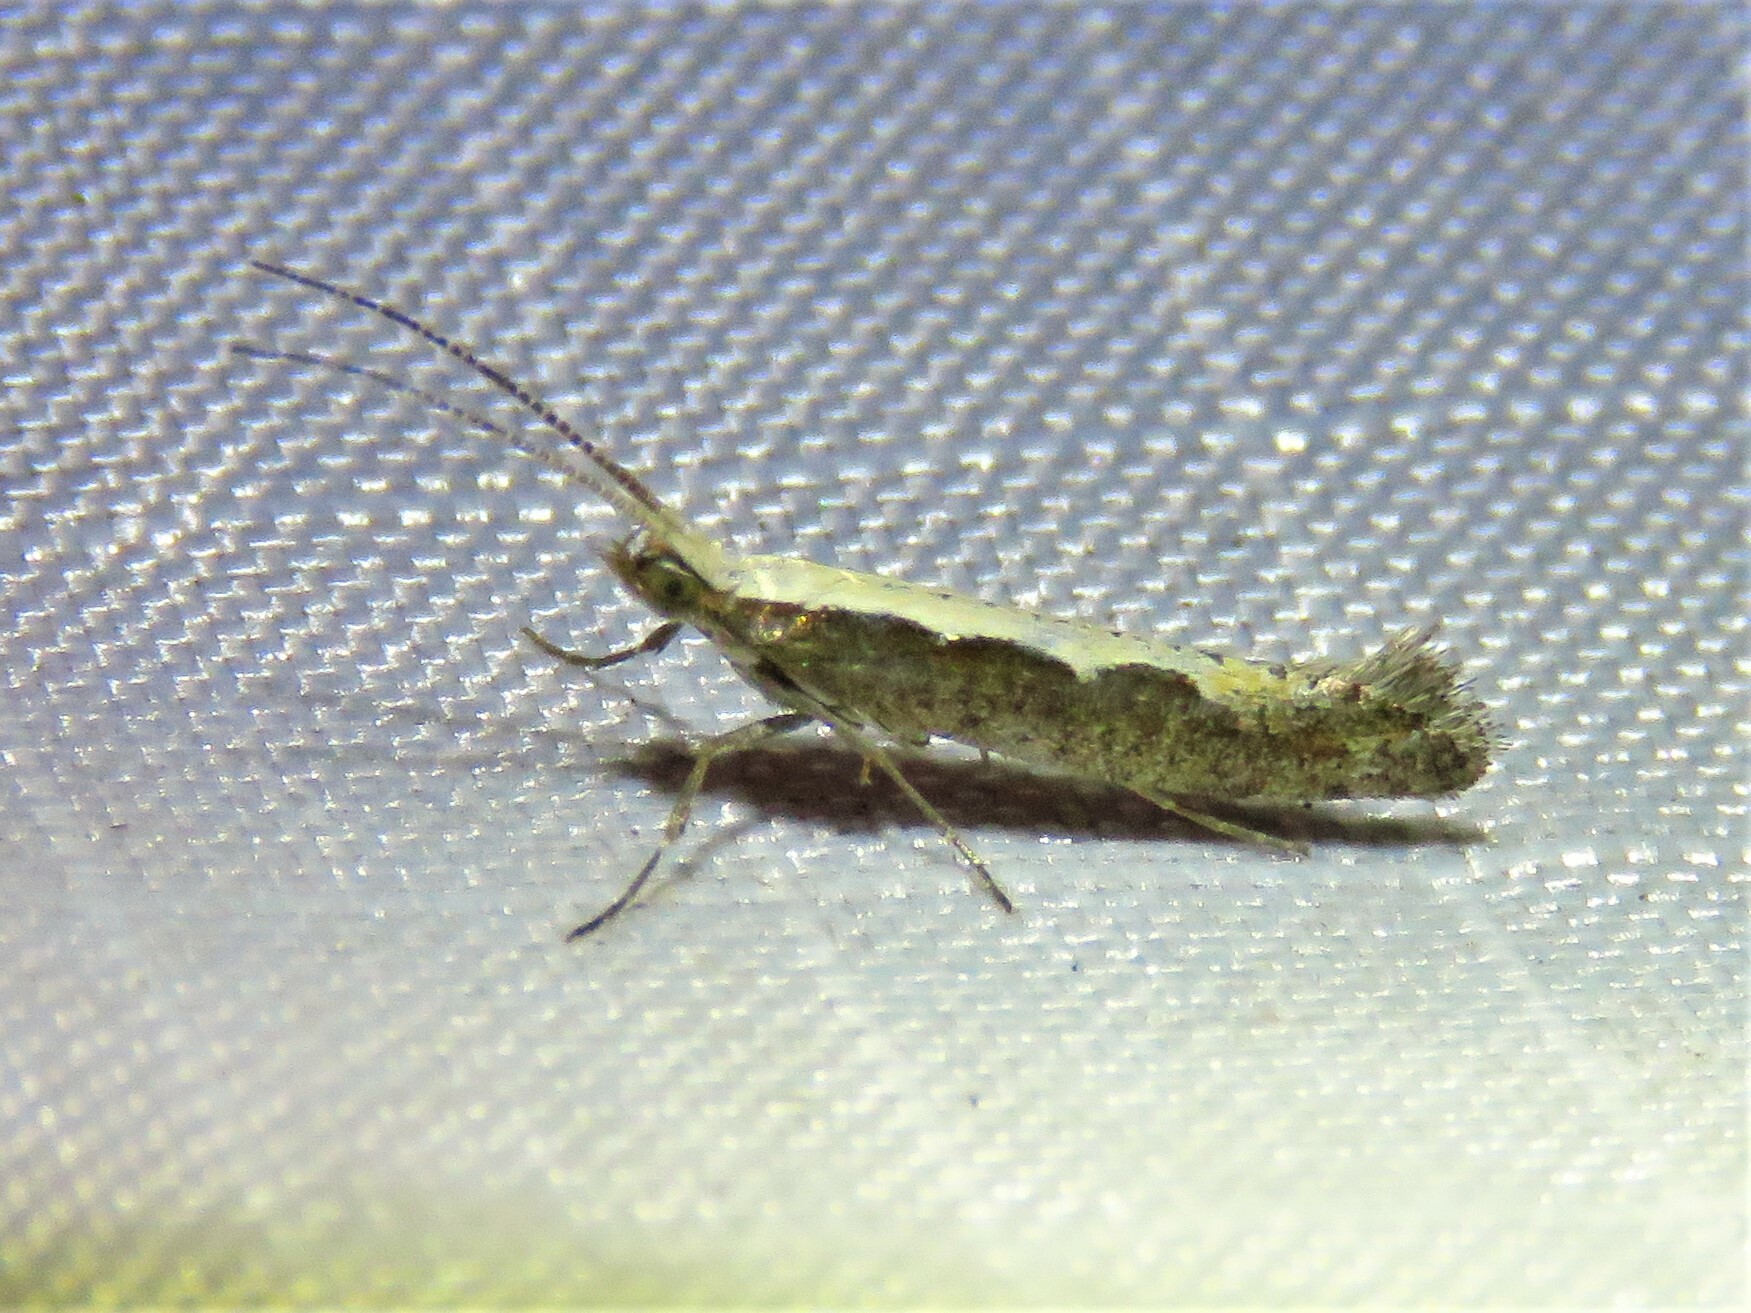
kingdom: Animalia
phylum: Arthropoda
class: Insecta
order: Lepidoptera
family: Plutellidae
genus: Plutella
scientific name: Plutella xylostella
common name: Diamond-back moth
